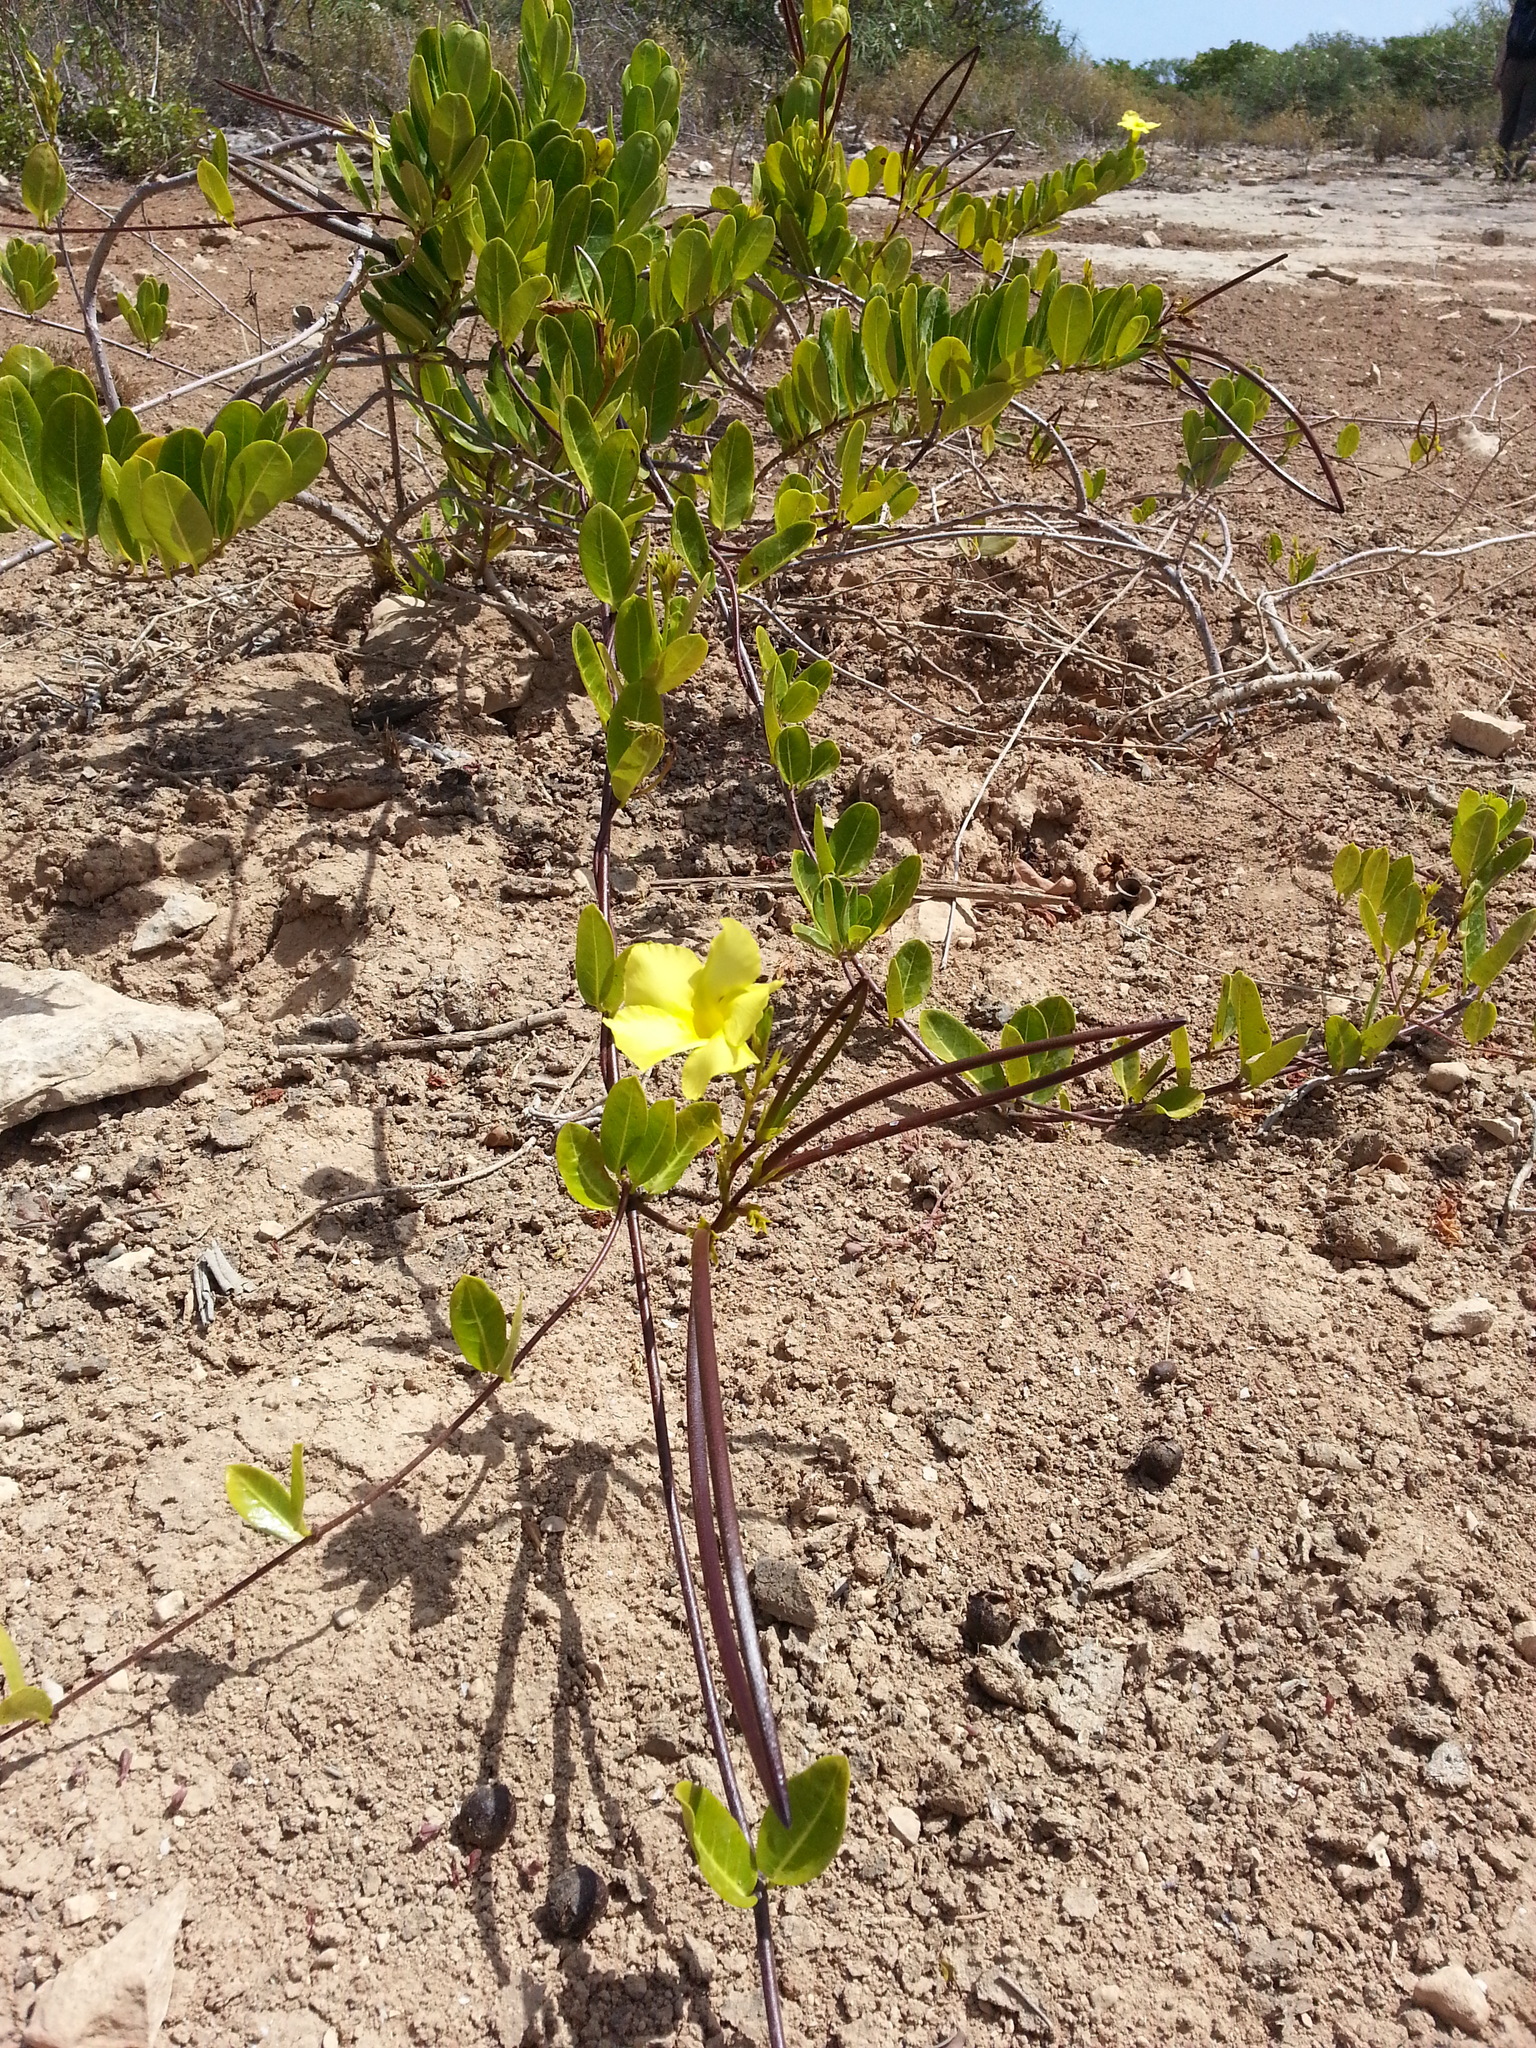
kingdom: Plantae
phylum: Tracheophyta
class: Magnoliopsida
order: Gentianales
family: Apocynaceae
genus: Pentalinon
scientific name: Pentalinon luteum
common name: Licebush
